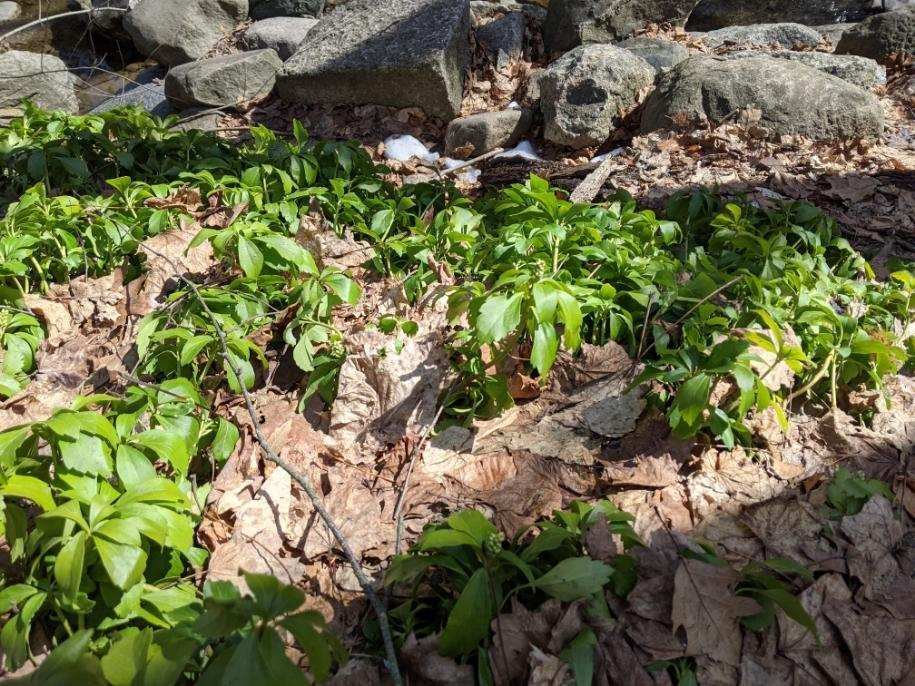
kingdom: Plantae
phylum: Tracheophyta
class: Magnoliopsida
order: Buxales
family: Buxaceae
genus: Pachysandra
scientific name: Pachysandra terminalis
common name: Japanese pachysandra
